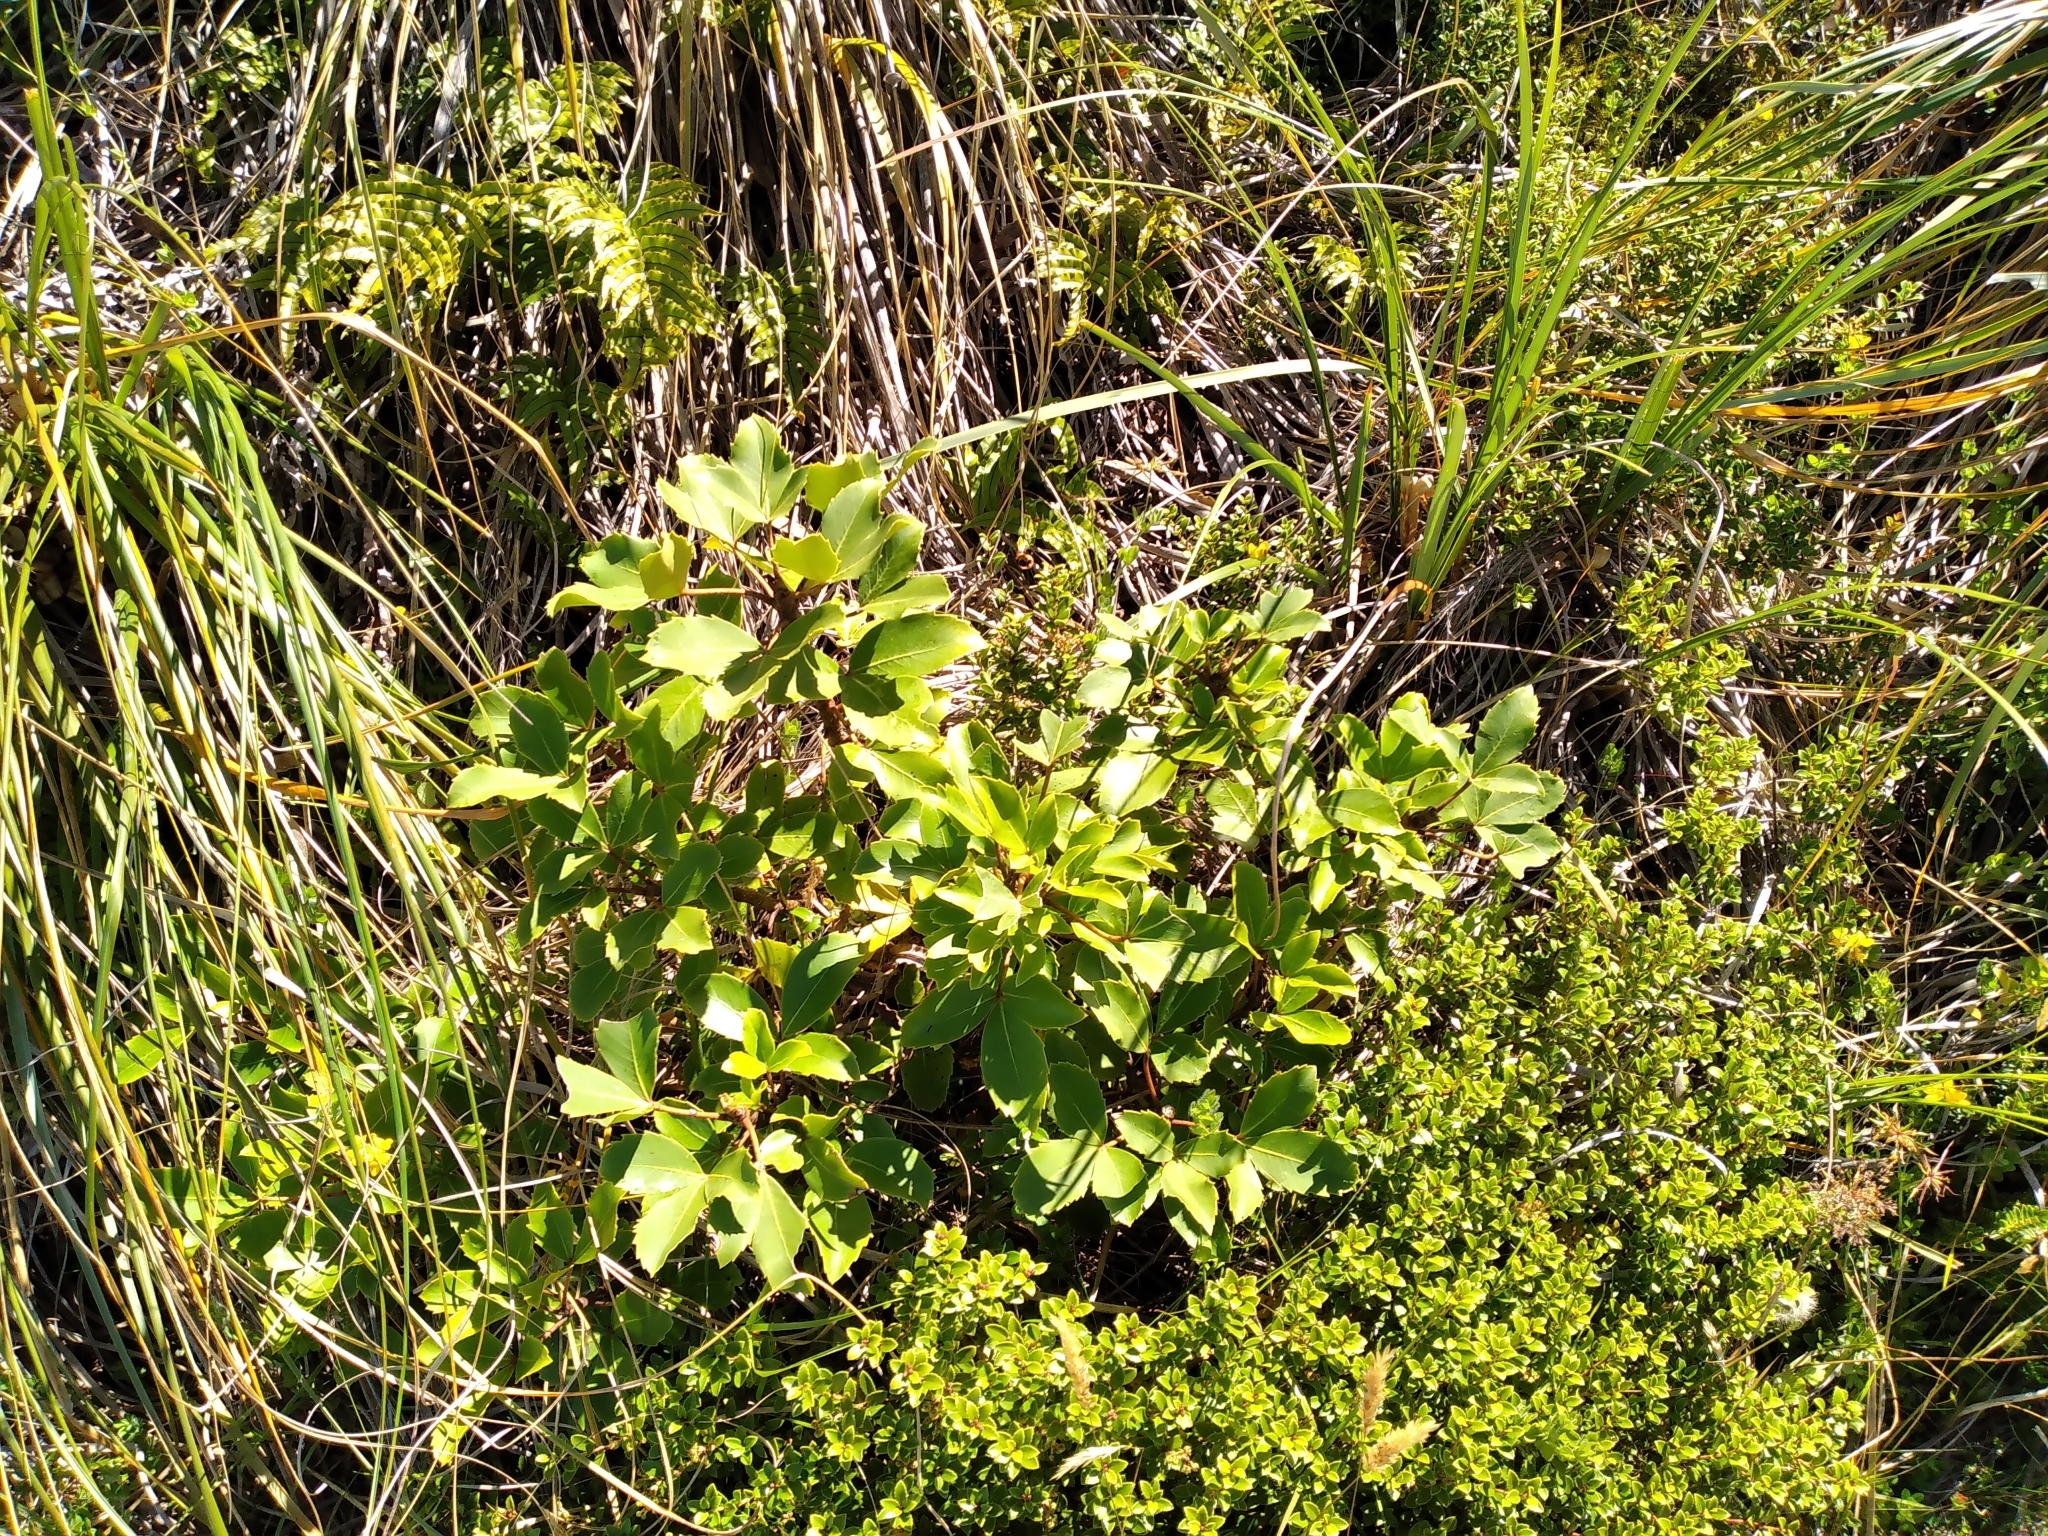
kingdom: Plantae
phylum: Tracheophyta
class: Magnoliopsida
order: Apiales
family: Araliaceae
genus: Neopanax
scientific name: Neopanax colensoi
